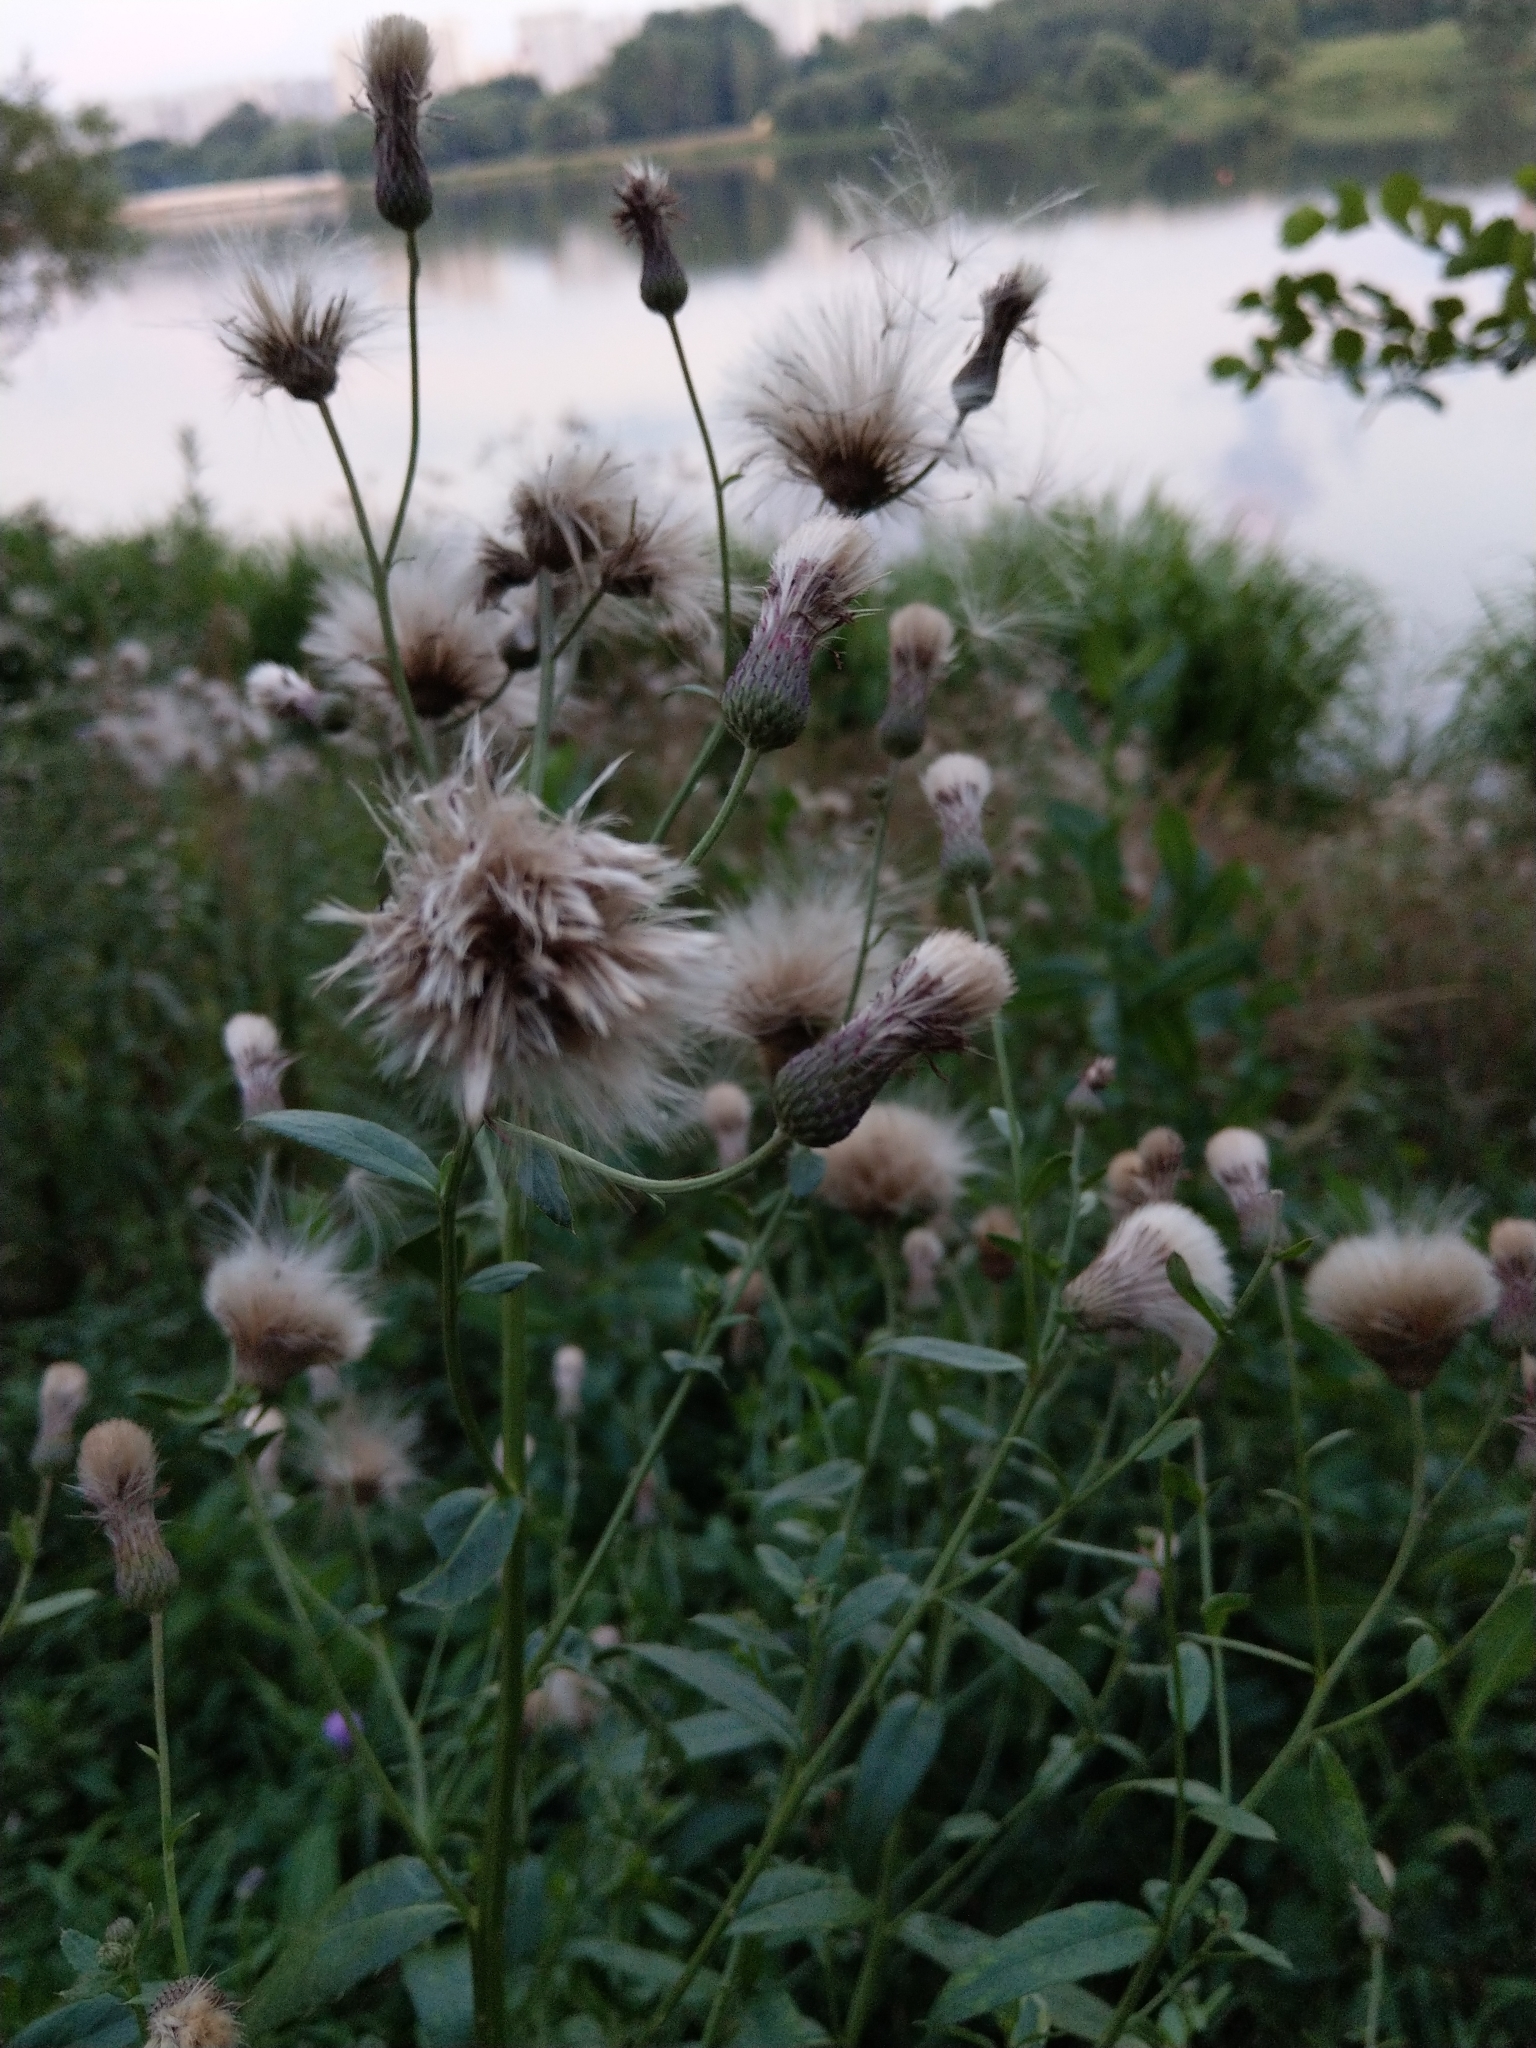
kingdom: Plantae
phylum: Tracheophyta
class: Magnoliopsida
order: Asterales
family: Asteraceae
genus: Cirsium
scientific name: Cirsium arvense
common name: Creeping thistle
